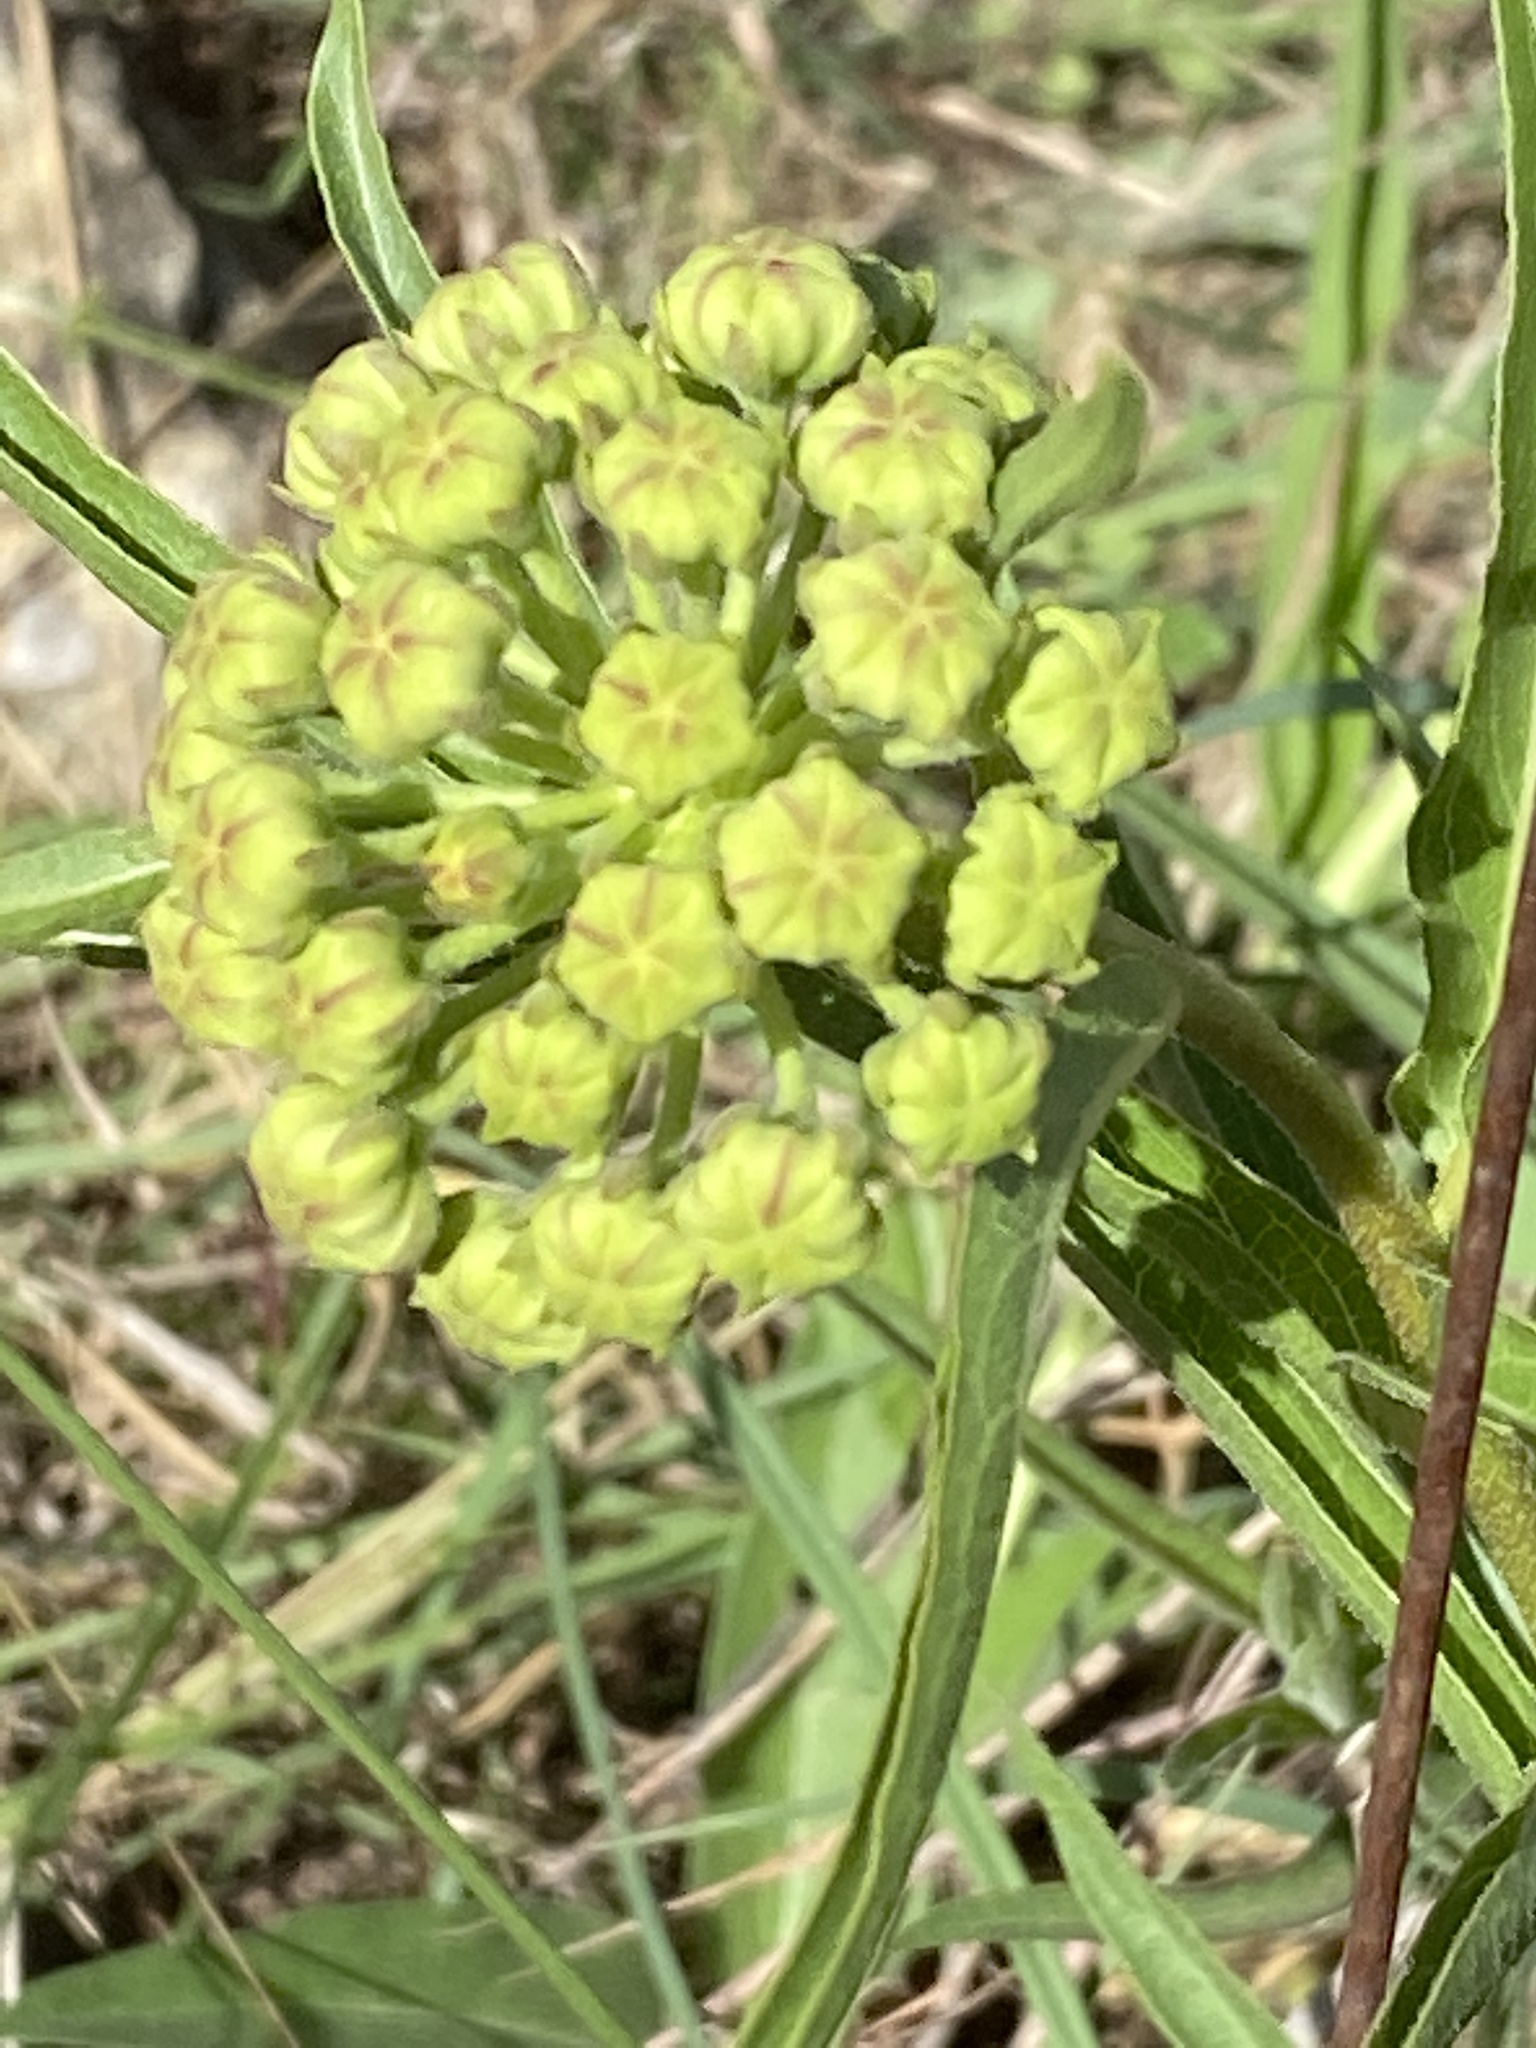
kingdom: Plantae
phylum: Tracheophyta
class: Magnoliopsida
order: Gentianales
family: Apocynaceae
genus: Asclepias
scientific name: Asclepias asperula
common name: Antelope horns
